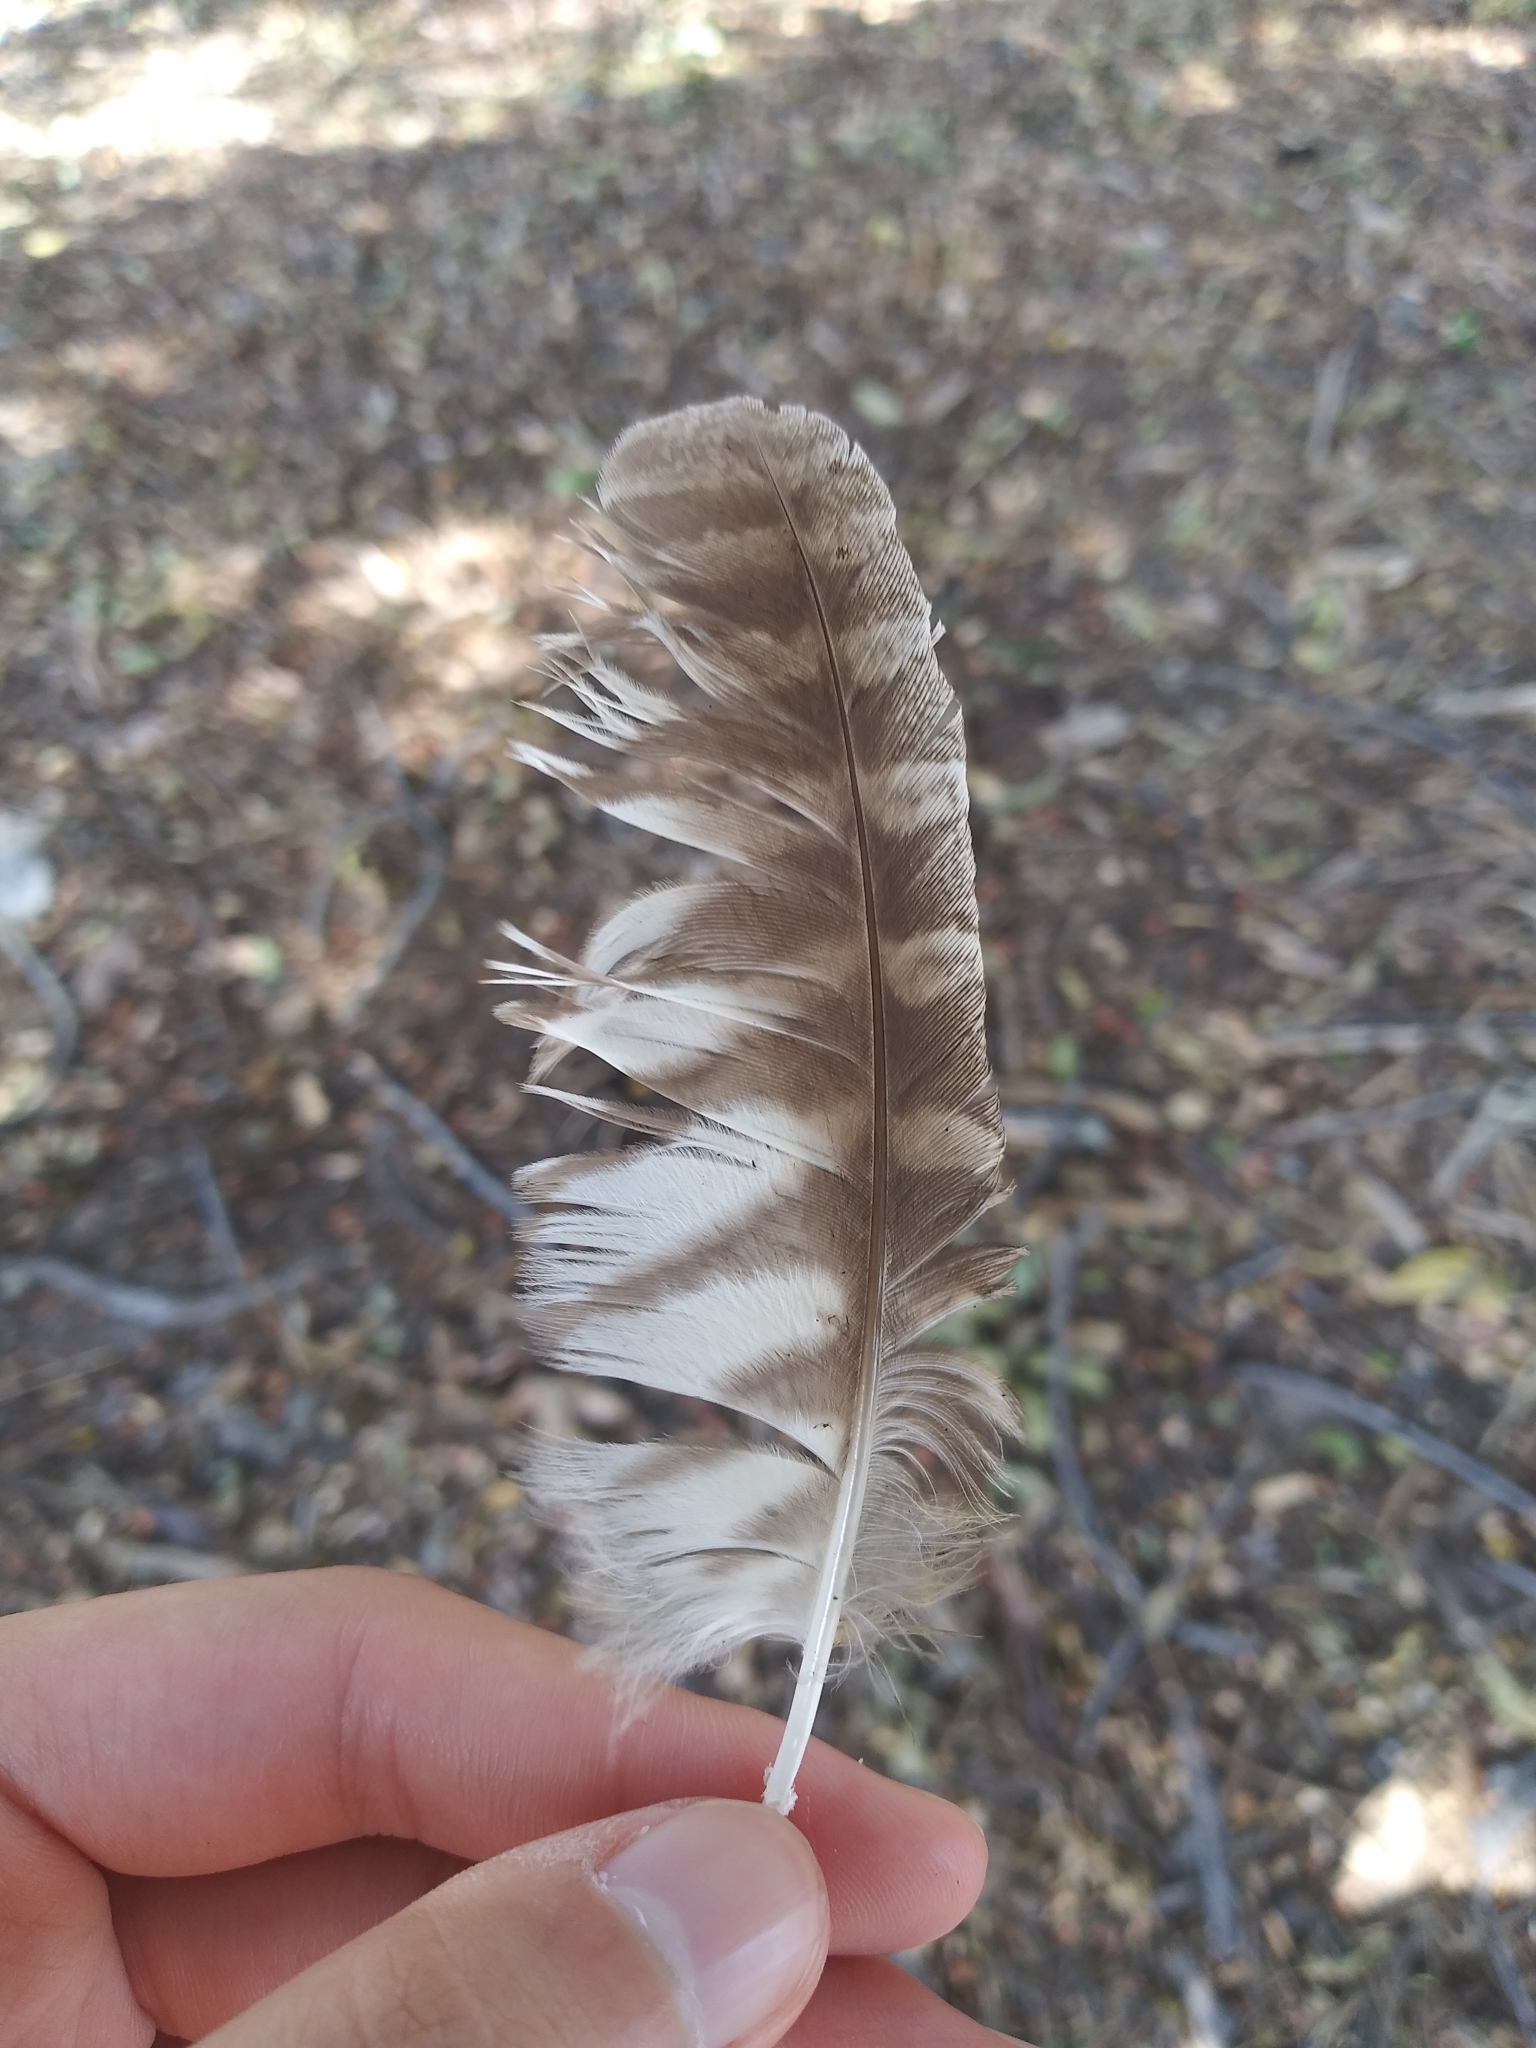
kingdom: Animalia
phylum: Chordata
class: Aves
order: Strigiformes
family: Strigidae
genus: Megascops
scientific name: Megascops asio
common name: Eastern screech-owl
